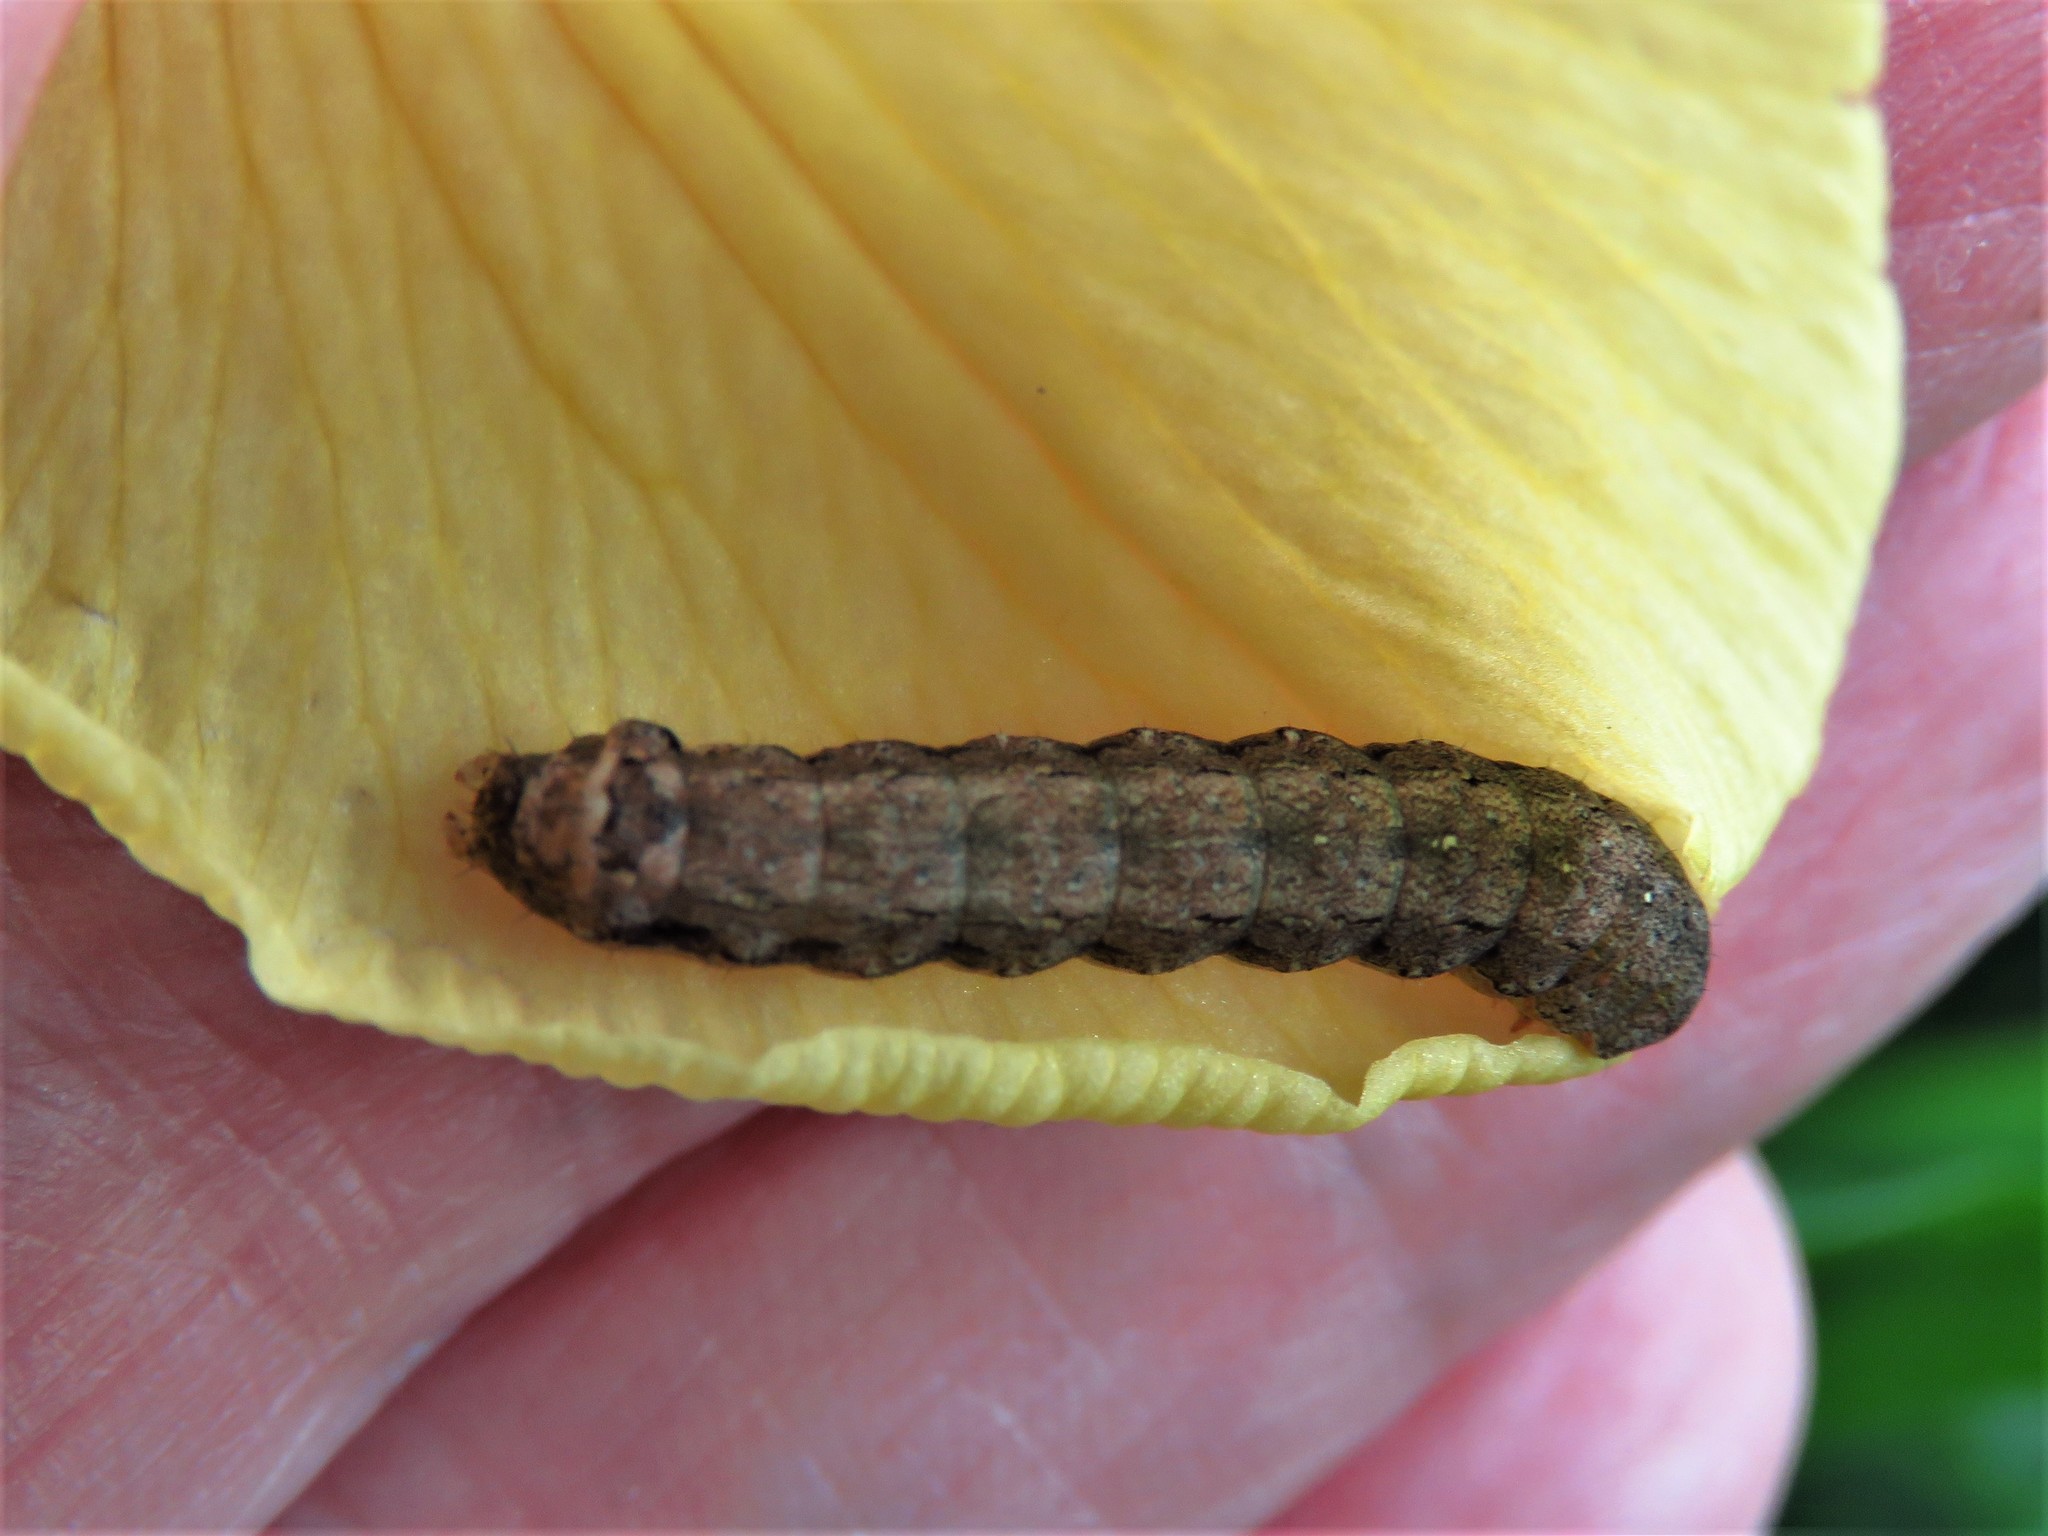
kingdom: Animalia
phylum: Arthropoda
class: Insecta
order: Lepidoptera
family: Noctuidae
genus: Peridroma
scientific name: Peridroma saucia
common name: Pearly underwing
